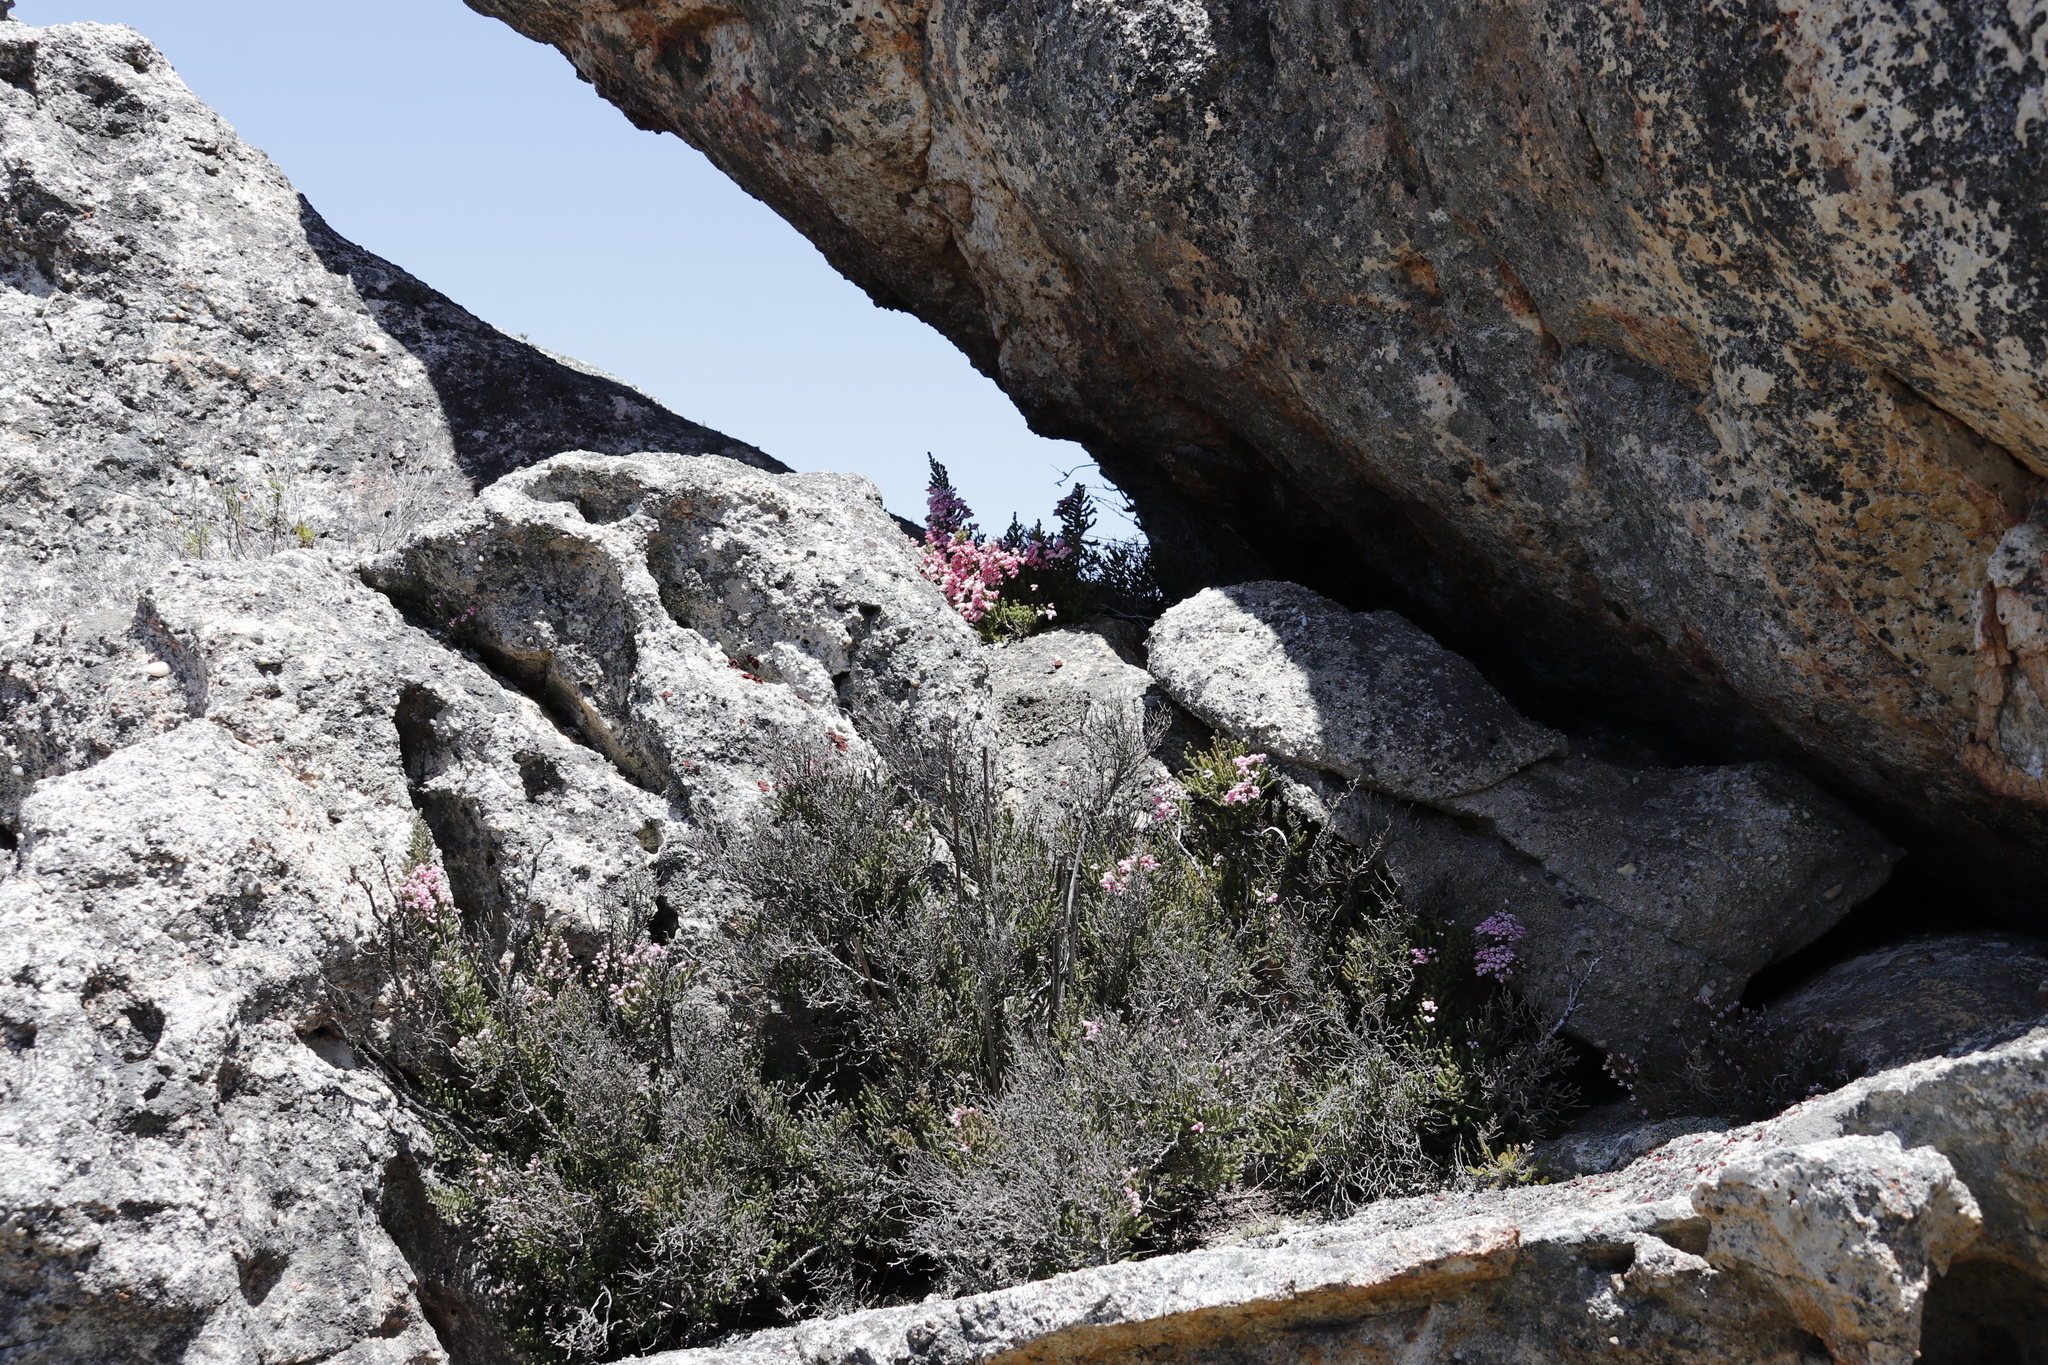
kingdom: Plantae
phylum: Tracheophyta
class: Magnoliopsida
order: Ericales
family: Ericaceae
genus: Erica
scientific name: Erica modesta
